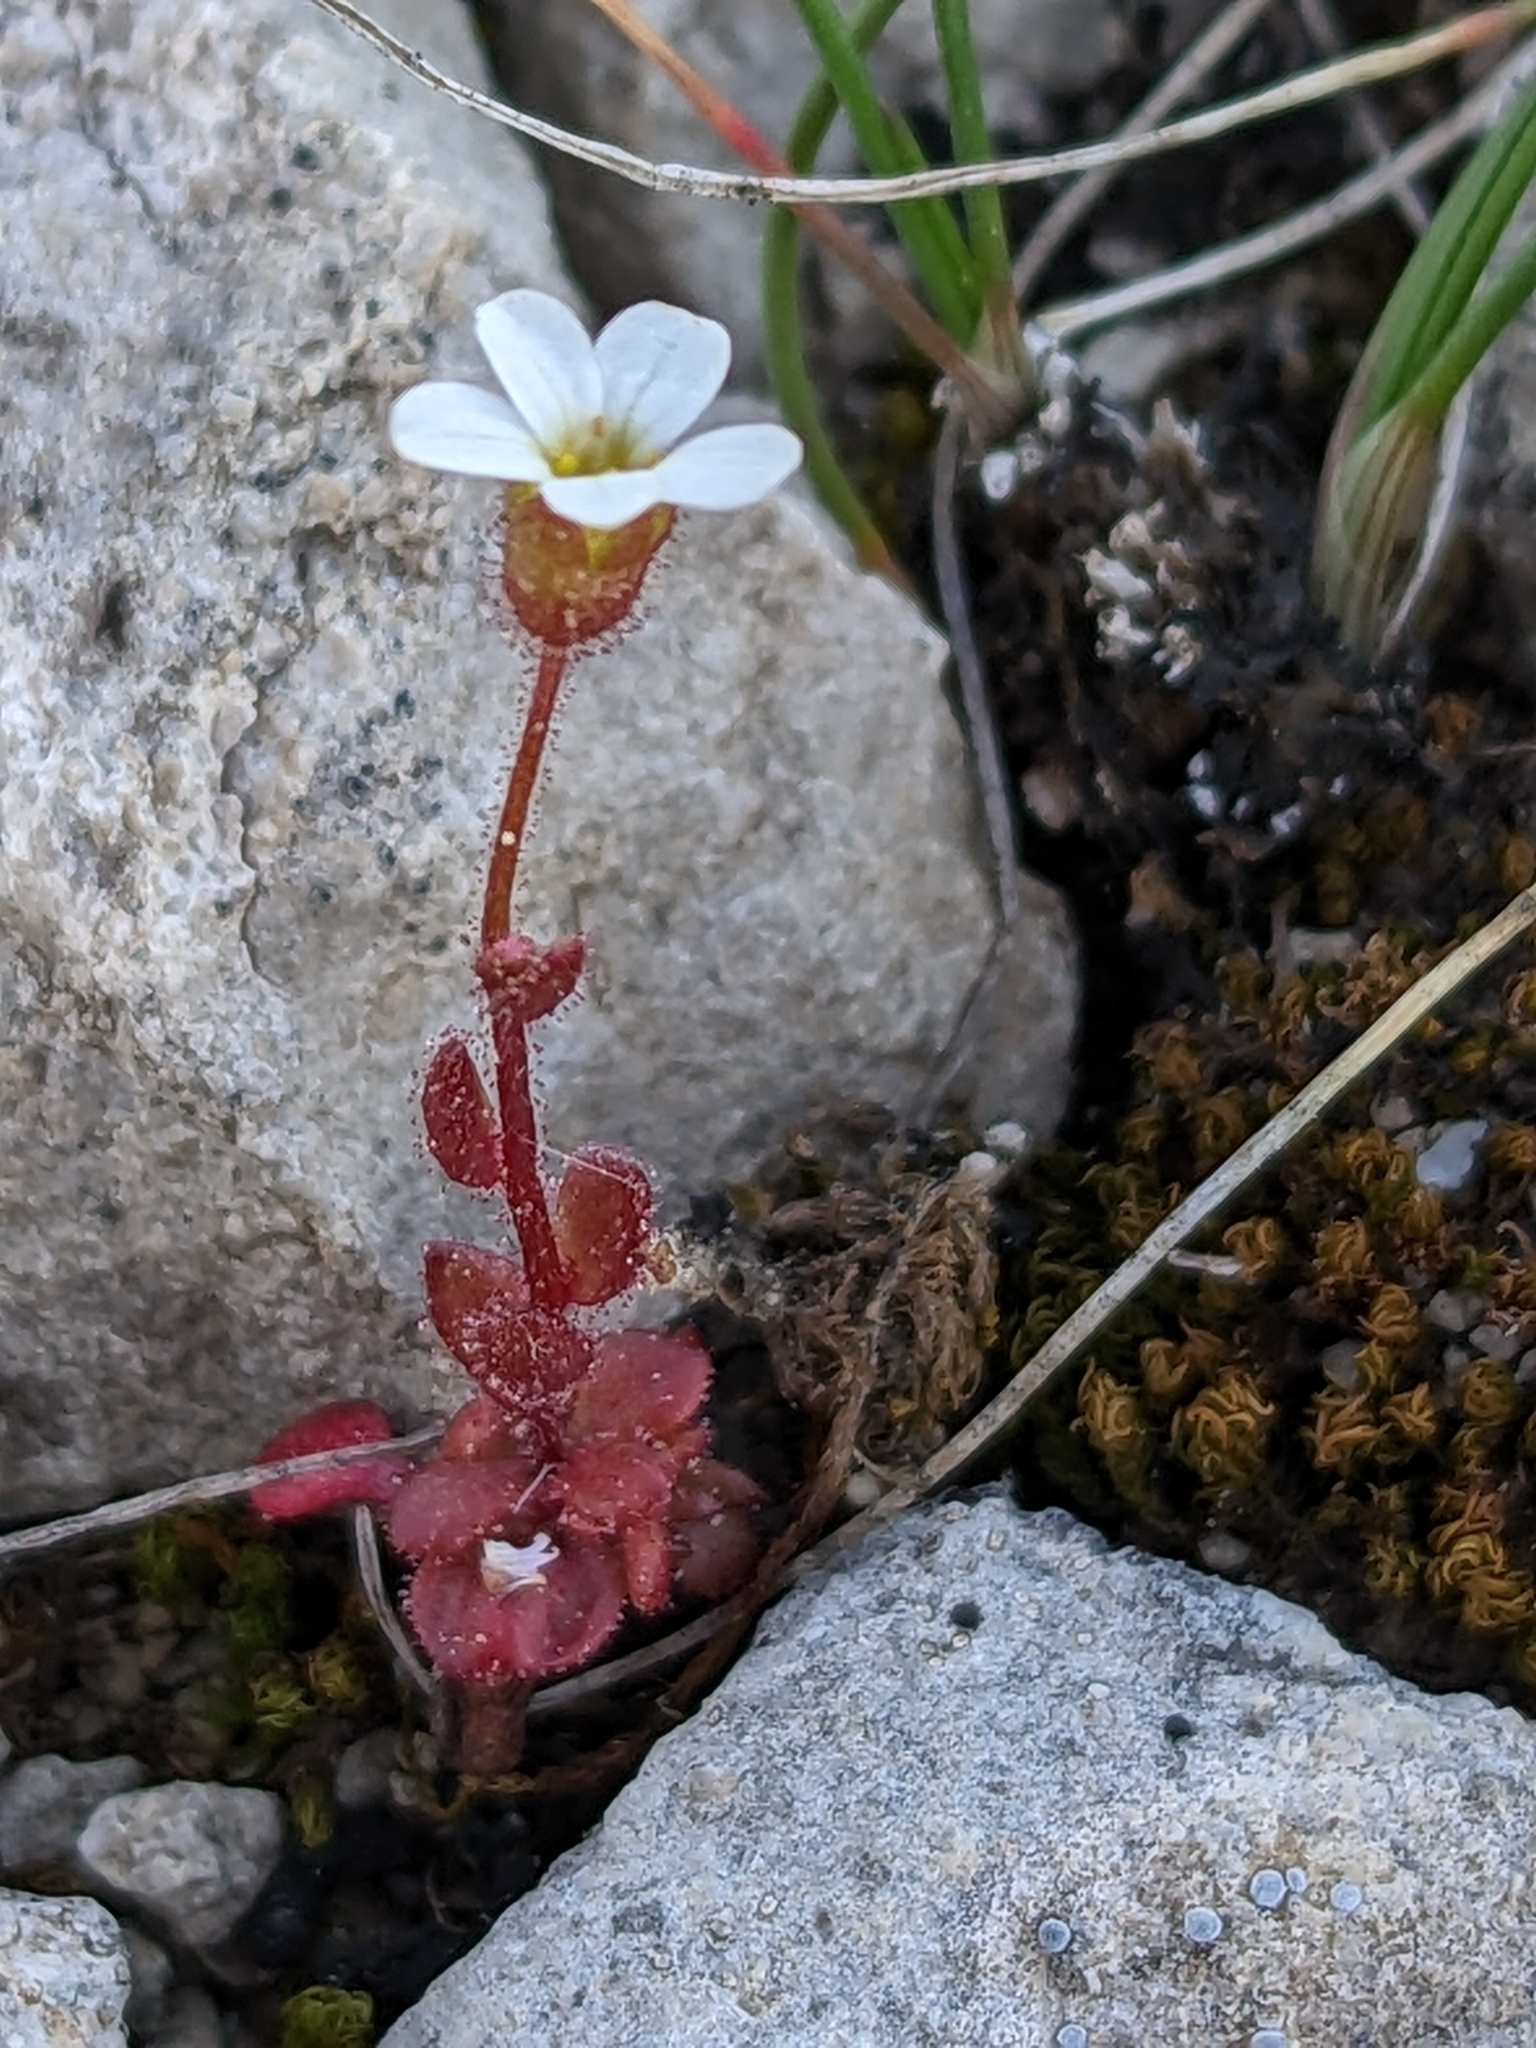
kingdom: Plantae
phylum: Tracheophyta
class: Magnoliopsida
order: Saxifragales
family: Saxifragaceae
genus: Saxifraga
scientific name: Saxifraga tridactylites
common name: Rue-leaved saxifrage
